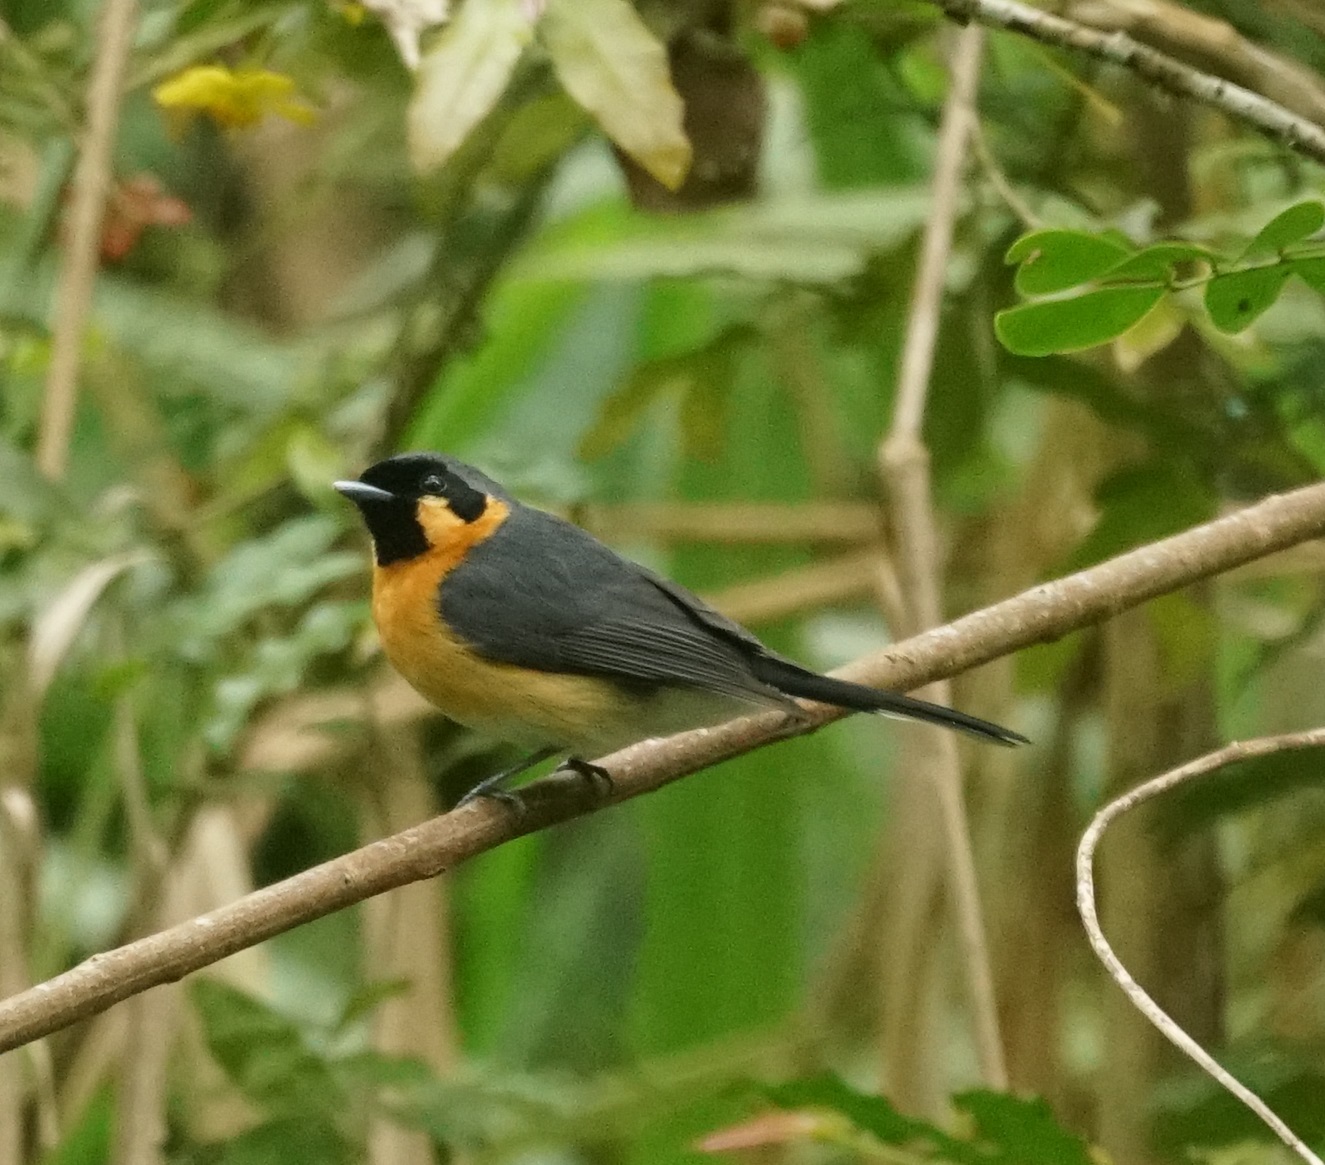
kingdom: Animalia
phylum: Chordata
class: Aves
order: Passeriformes
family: Monarchidae
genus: Symposiachrus
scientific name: Symposiachrus trivirgatus
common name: Spectacled monarch
